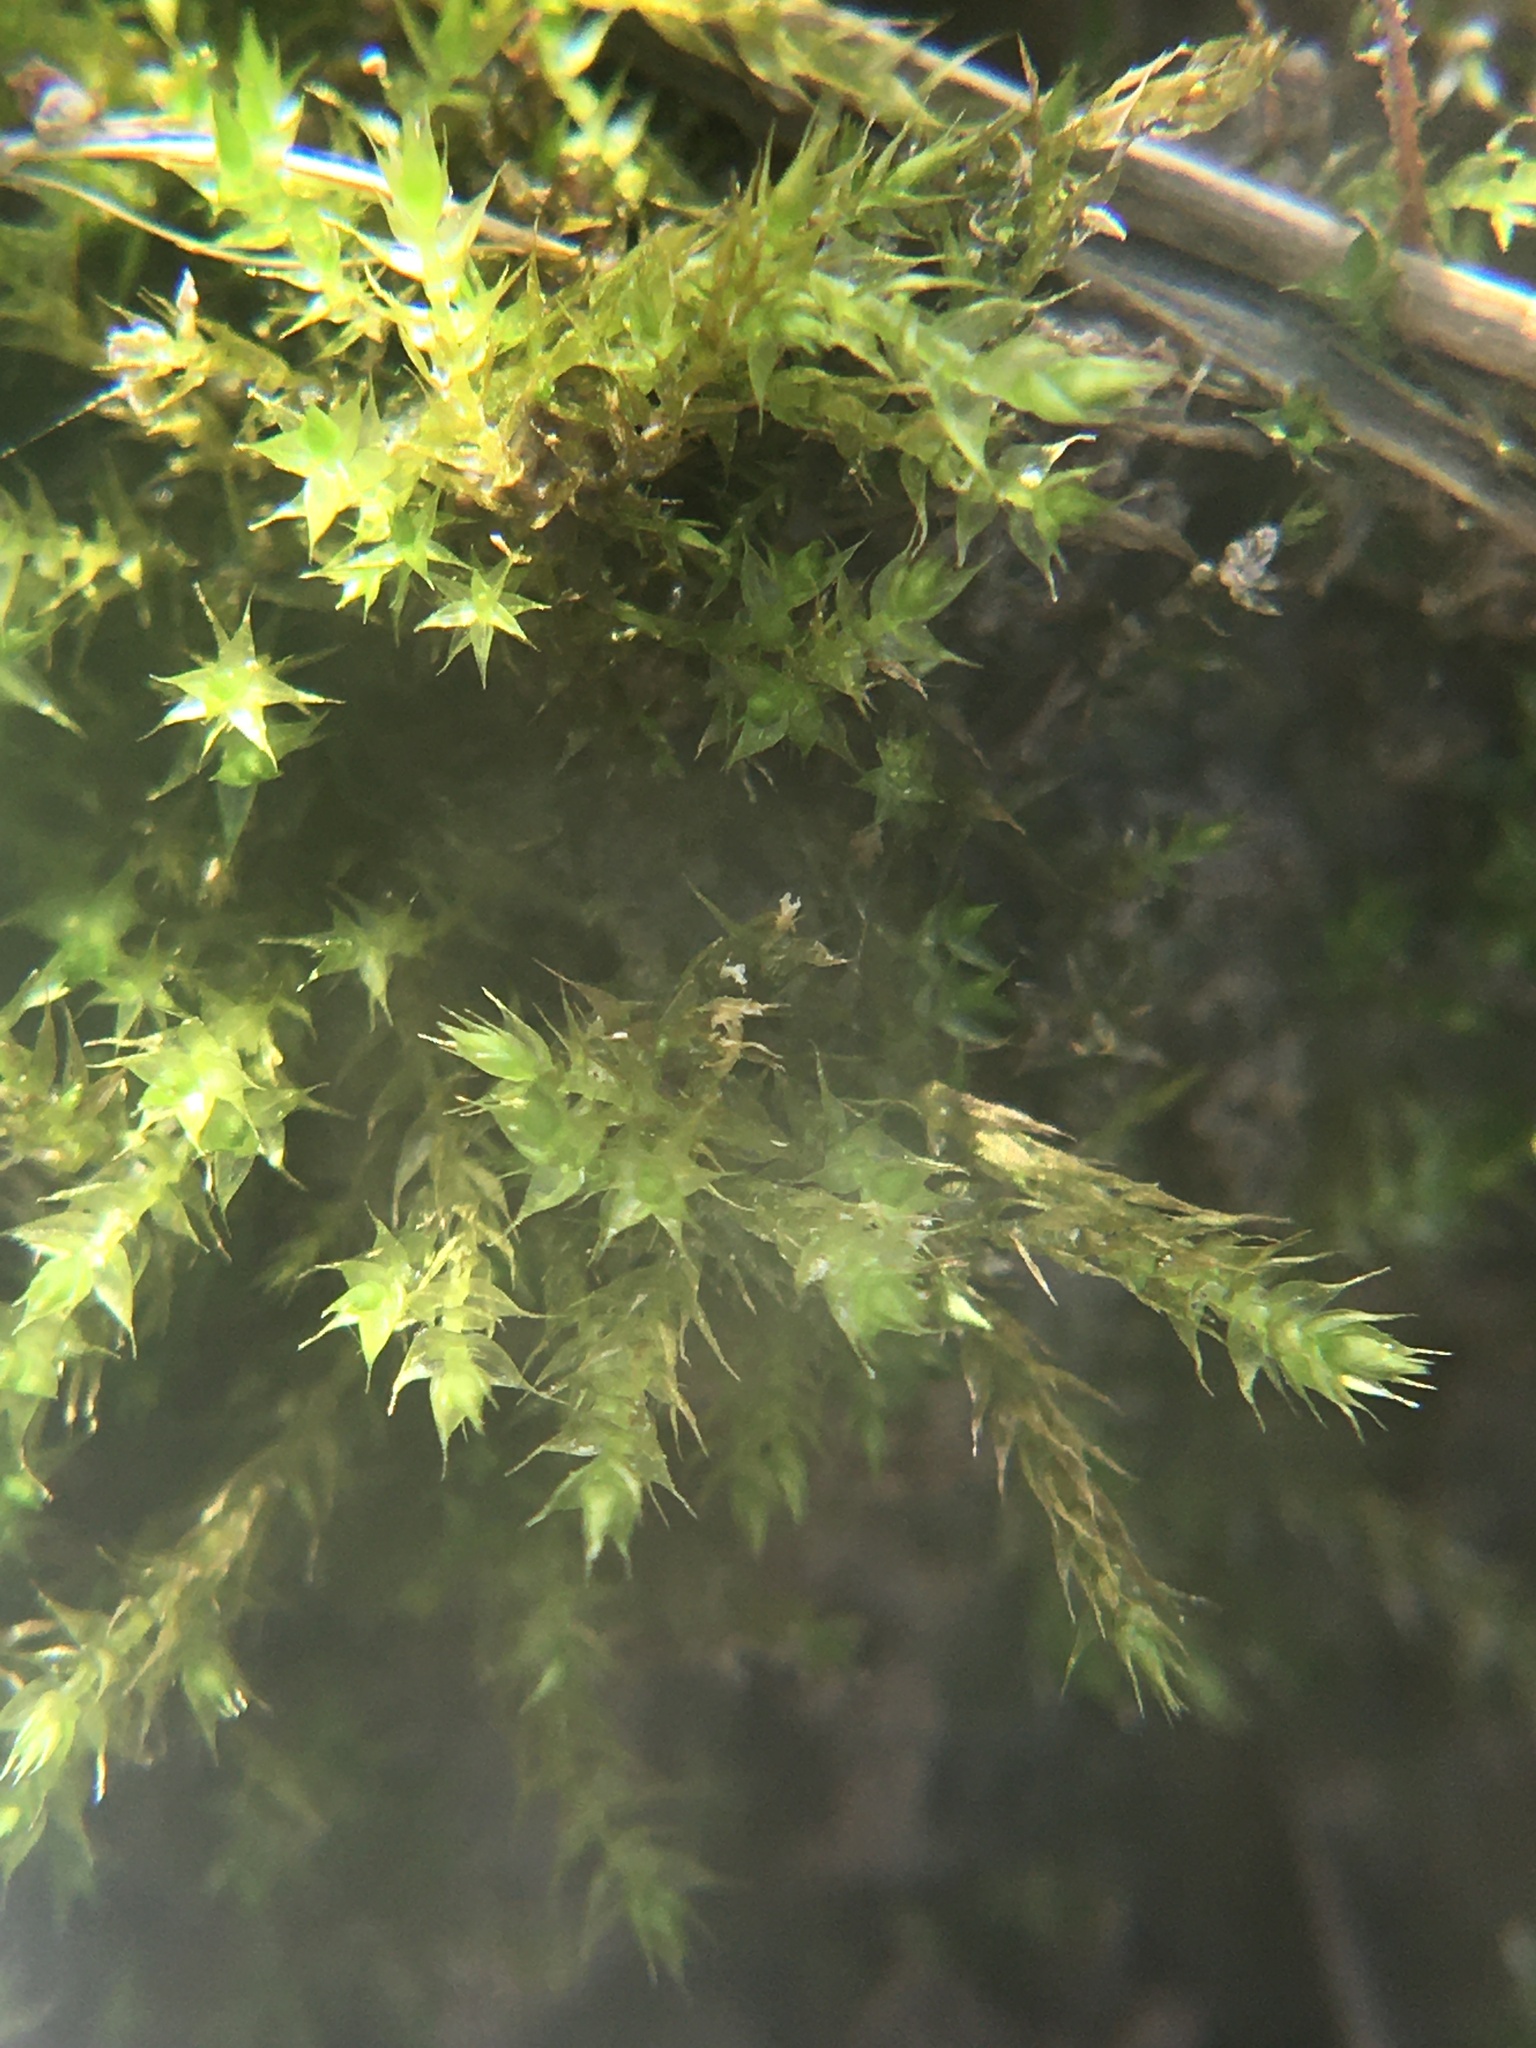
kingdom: Plantae
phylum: Bryophyta
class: Bryopsida
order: Hypnales
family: Amblystegiaceae
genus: Hygroamblystegium
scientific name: Hygroamblystegium varium
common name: Willow feather-moss
